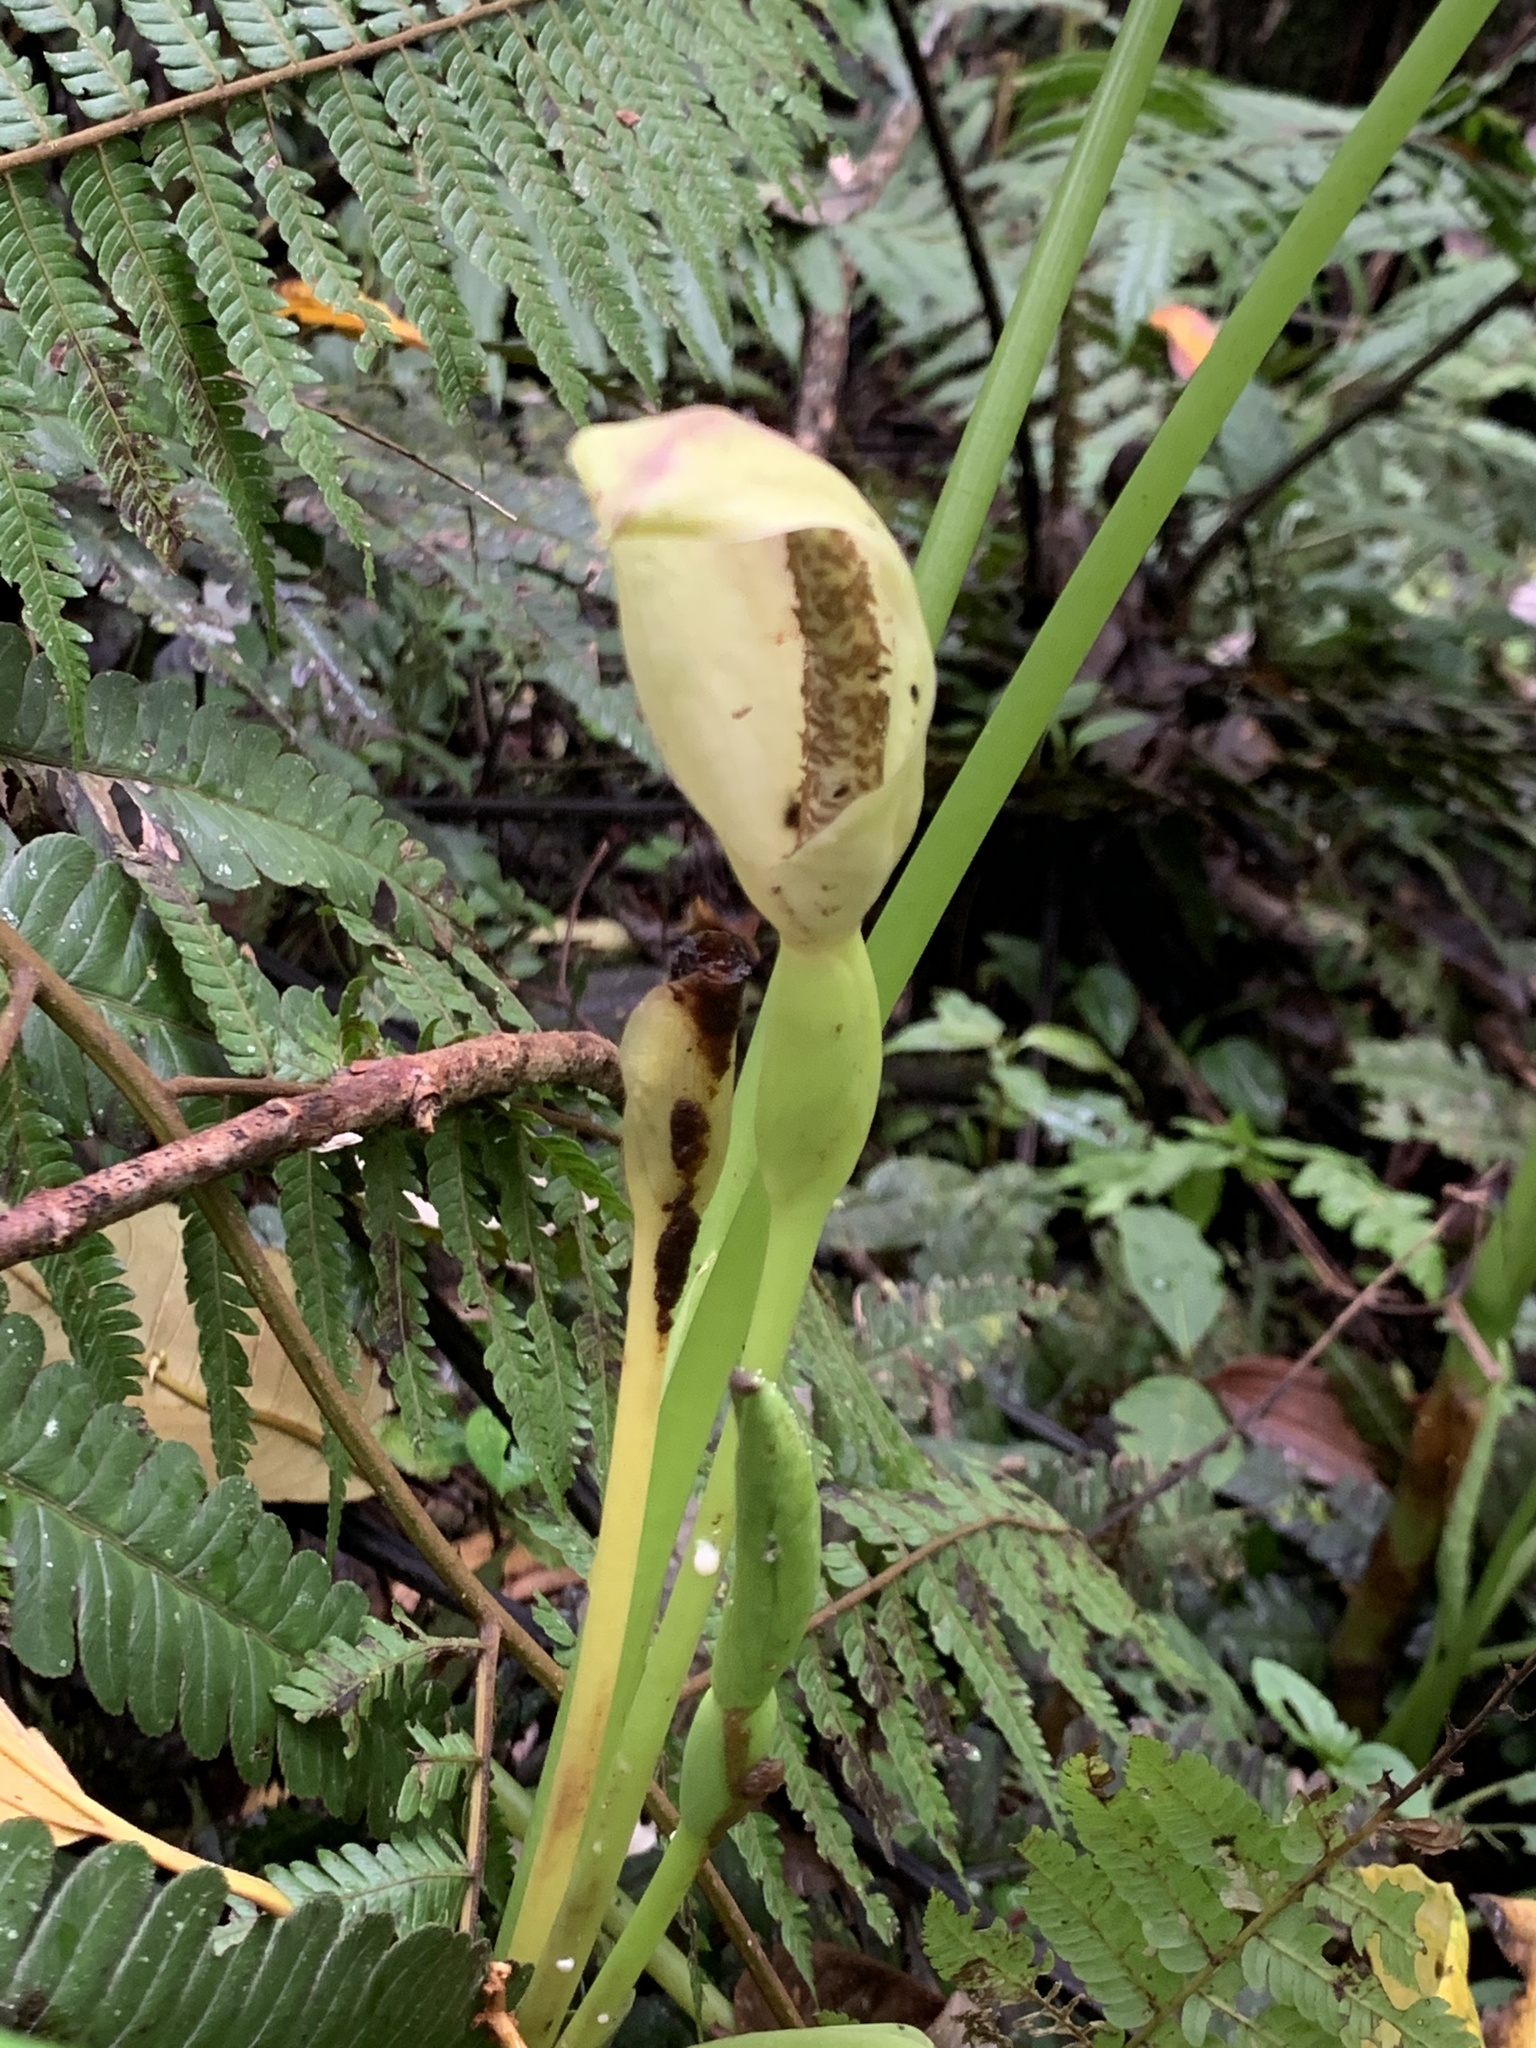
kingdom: Plantae
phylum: Tracheophyta
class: Liliopsida
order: Alismatales
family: Araceae
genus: Xanthosoma
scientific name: Xanthosoma crassinervium
